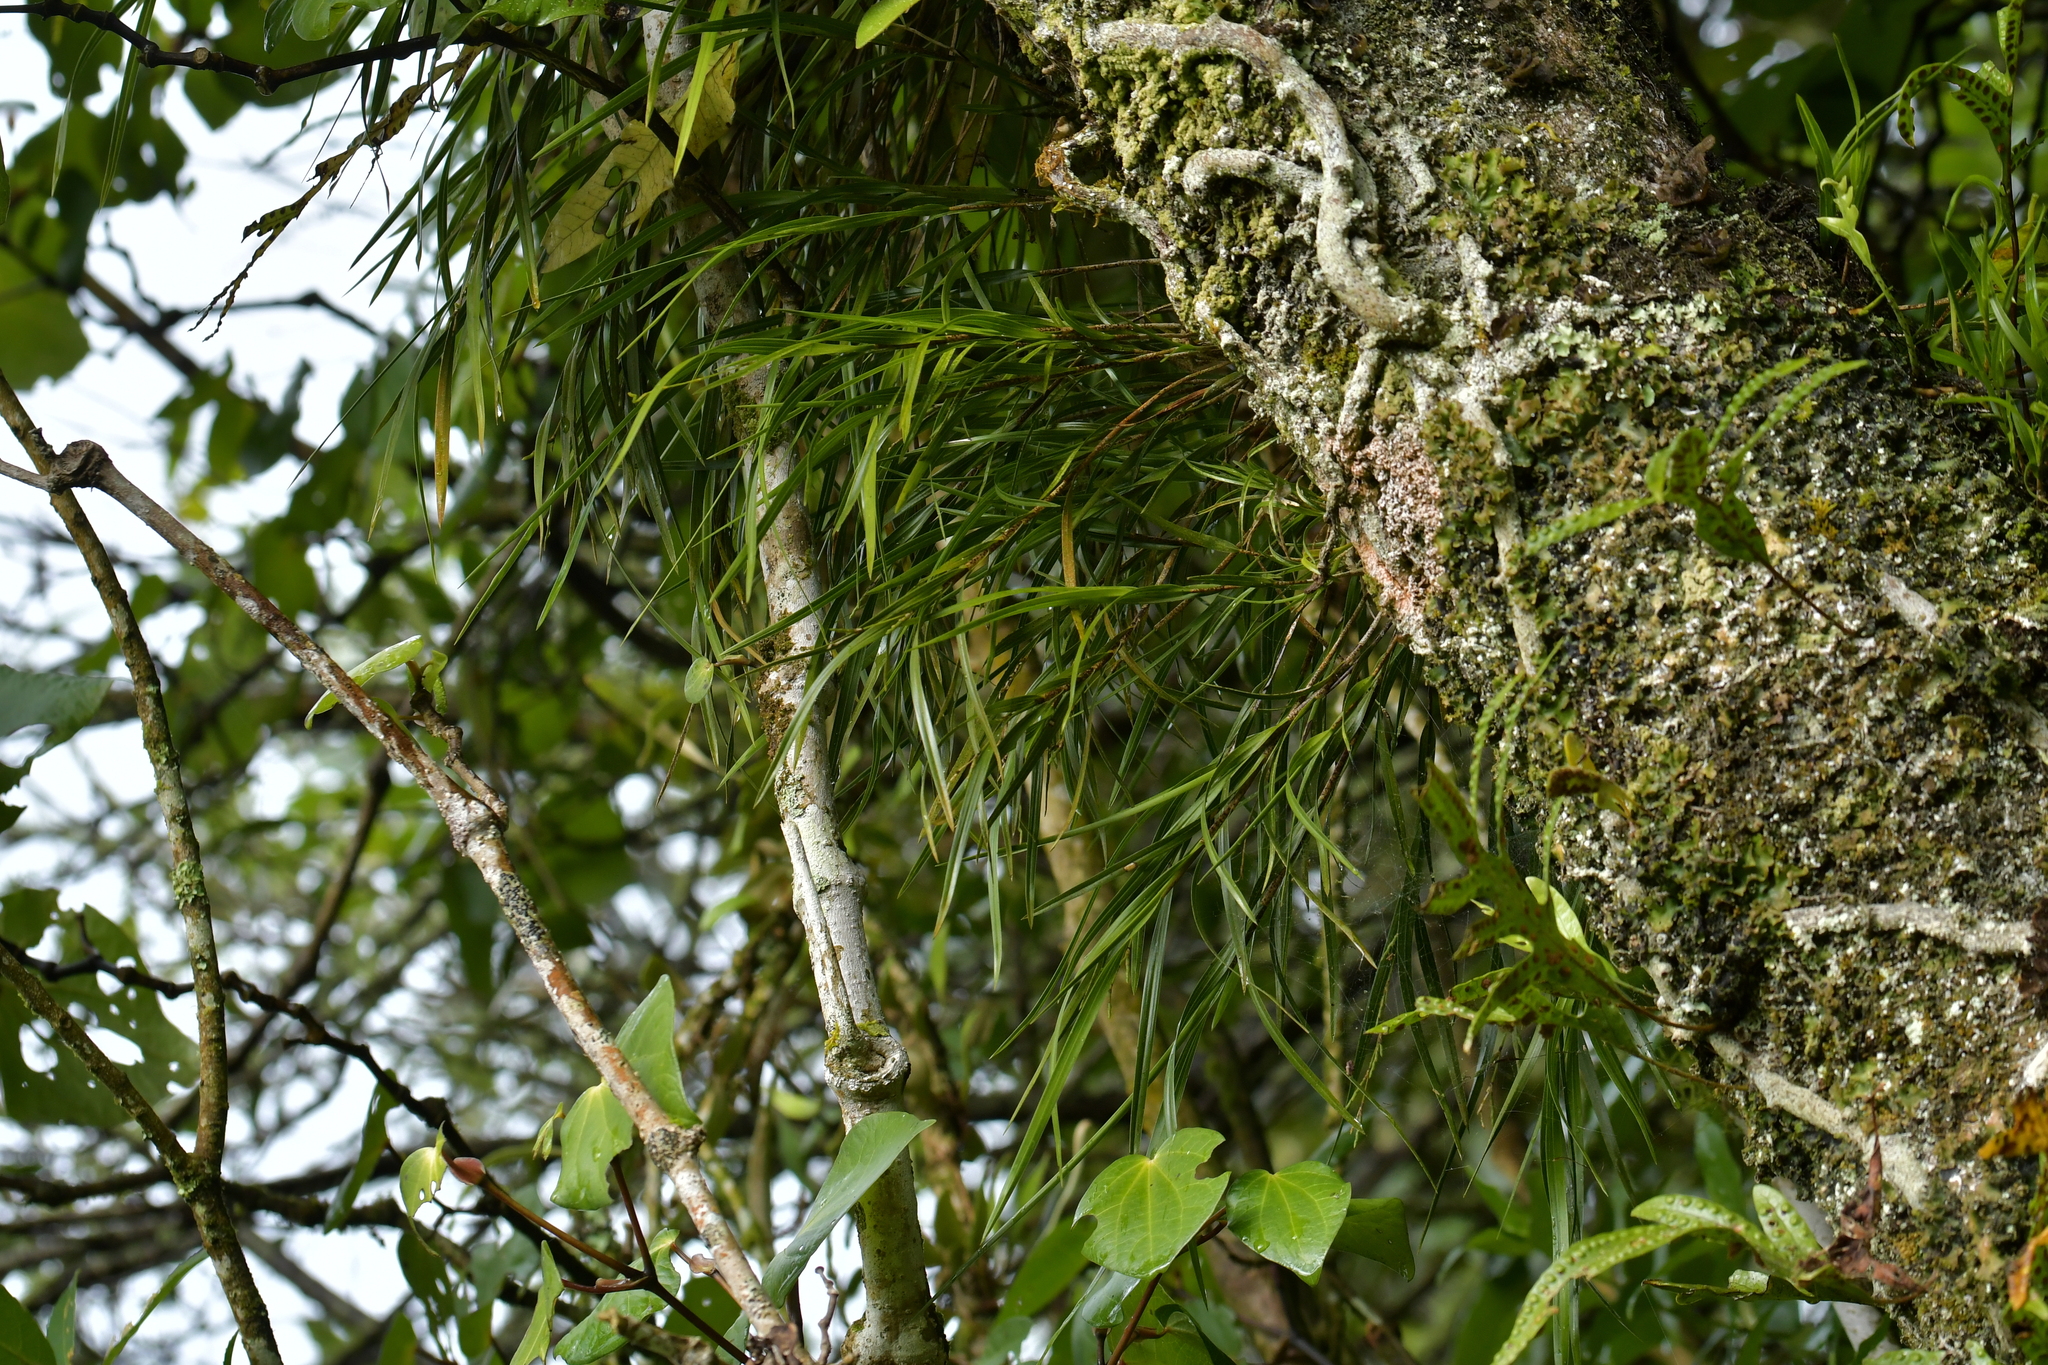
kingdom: Plantae
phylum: Tracheophyta
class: Liliopsida
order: Asparagales
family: Orchidaceae
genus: Earina
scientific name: Earina mucronata
